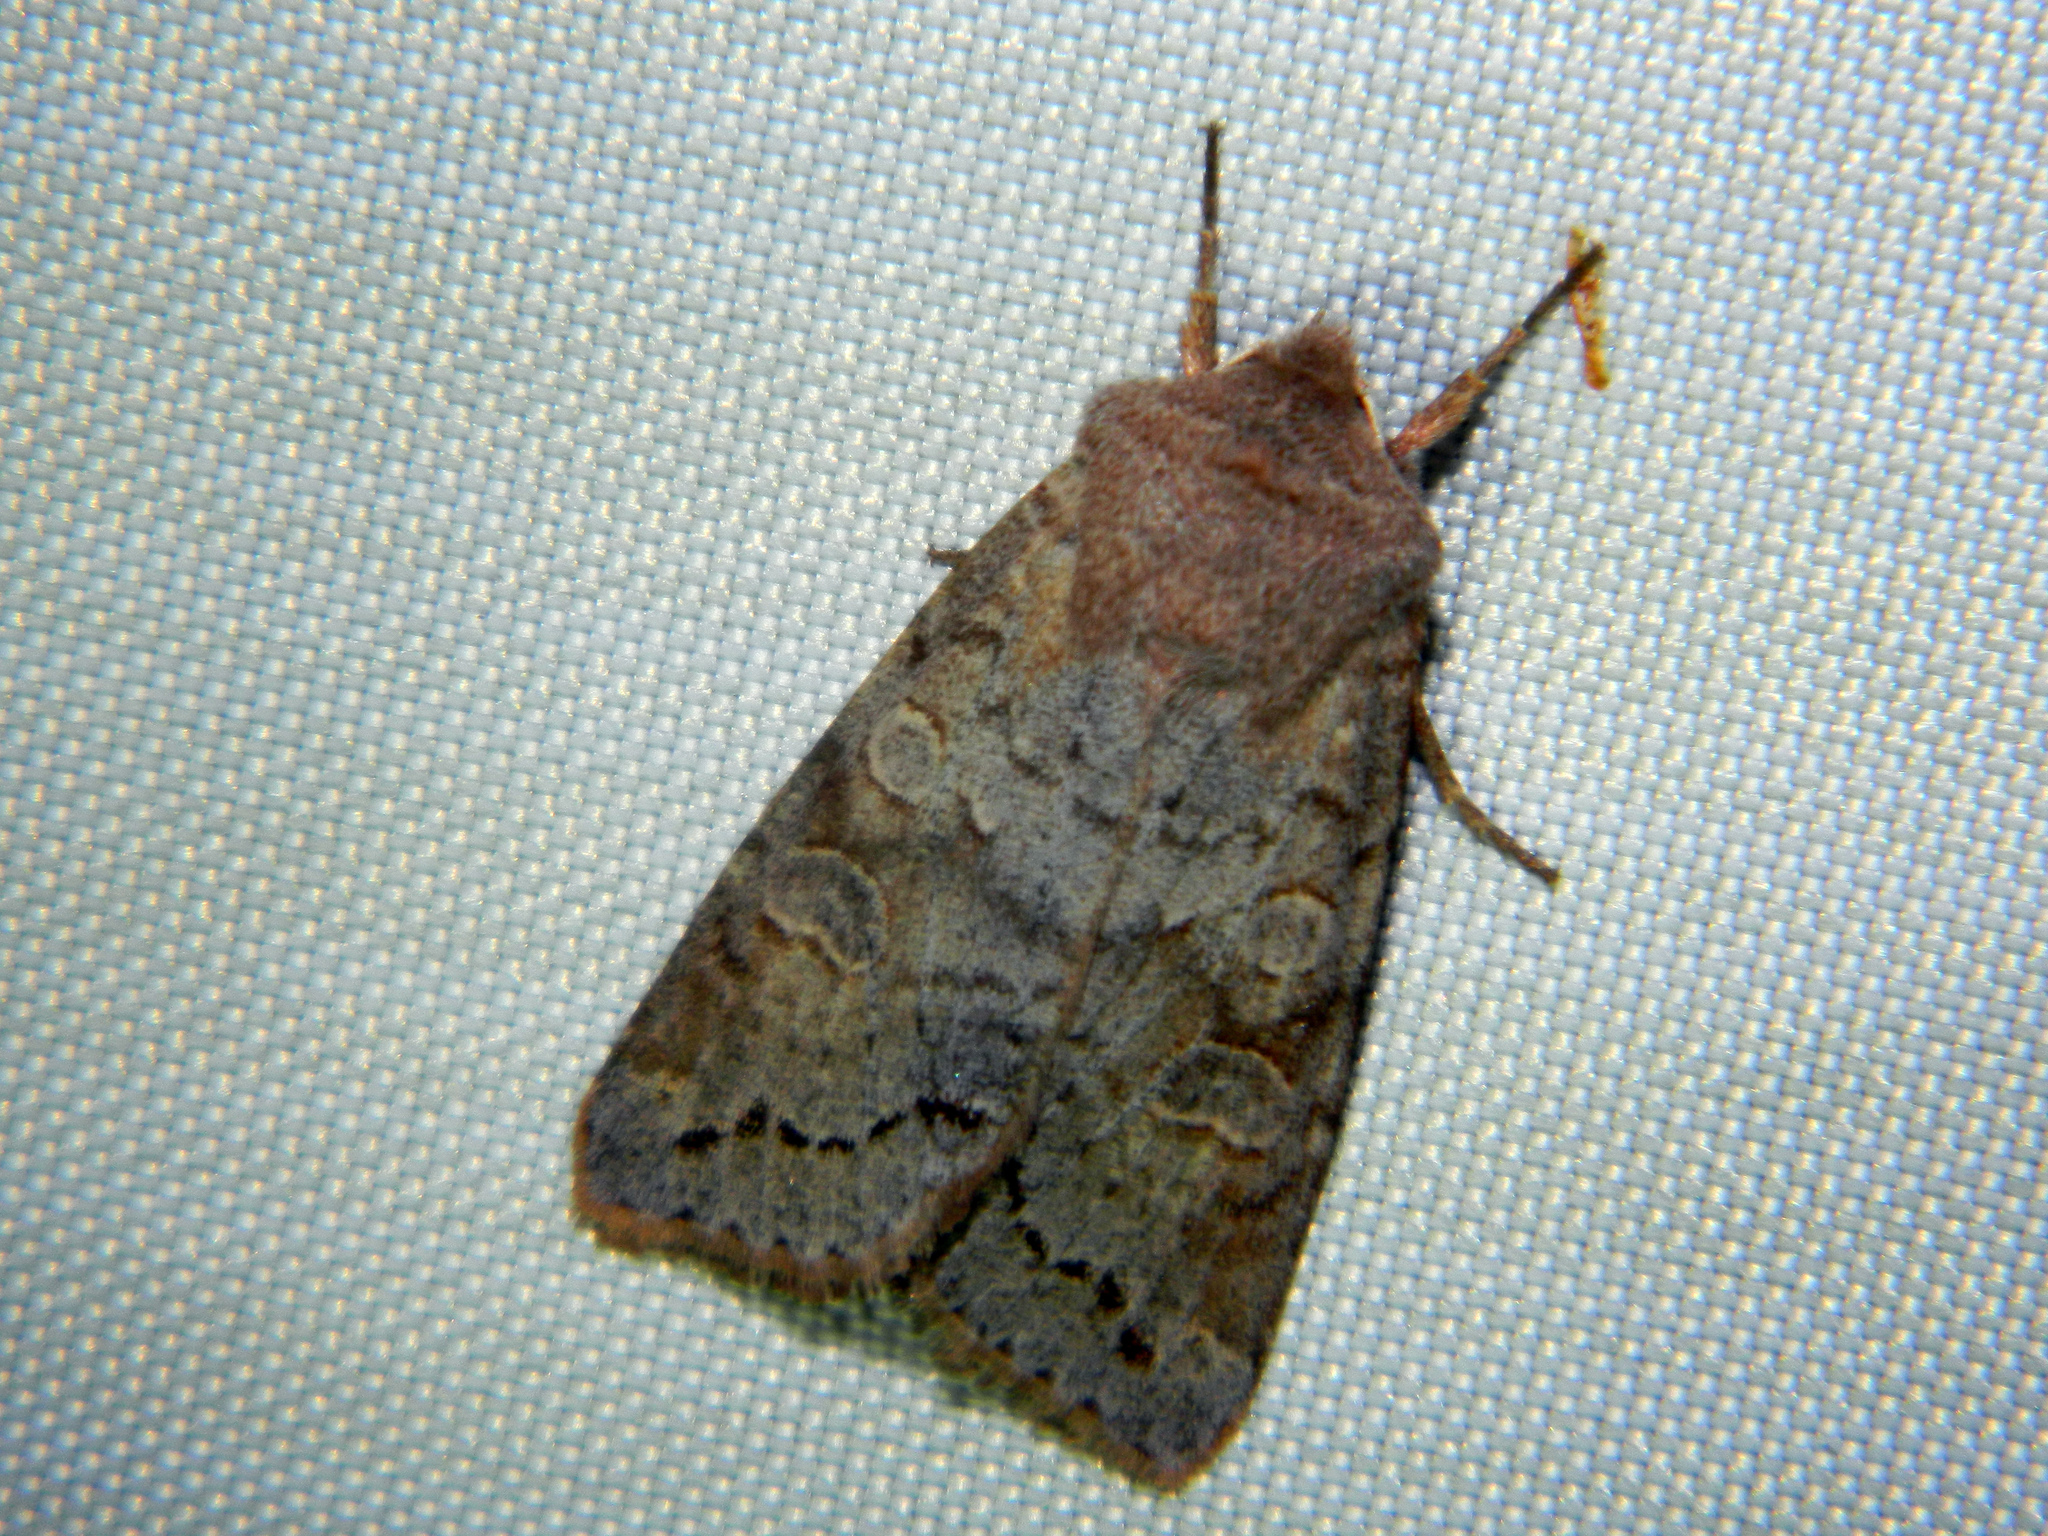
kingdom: Animalia
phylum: Arthropoda
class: Insecta
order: Lepidoptera
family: Noctuidae
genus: Orthosia
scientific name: Orthosia revicta
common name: Rusty whitesided caterpillar
